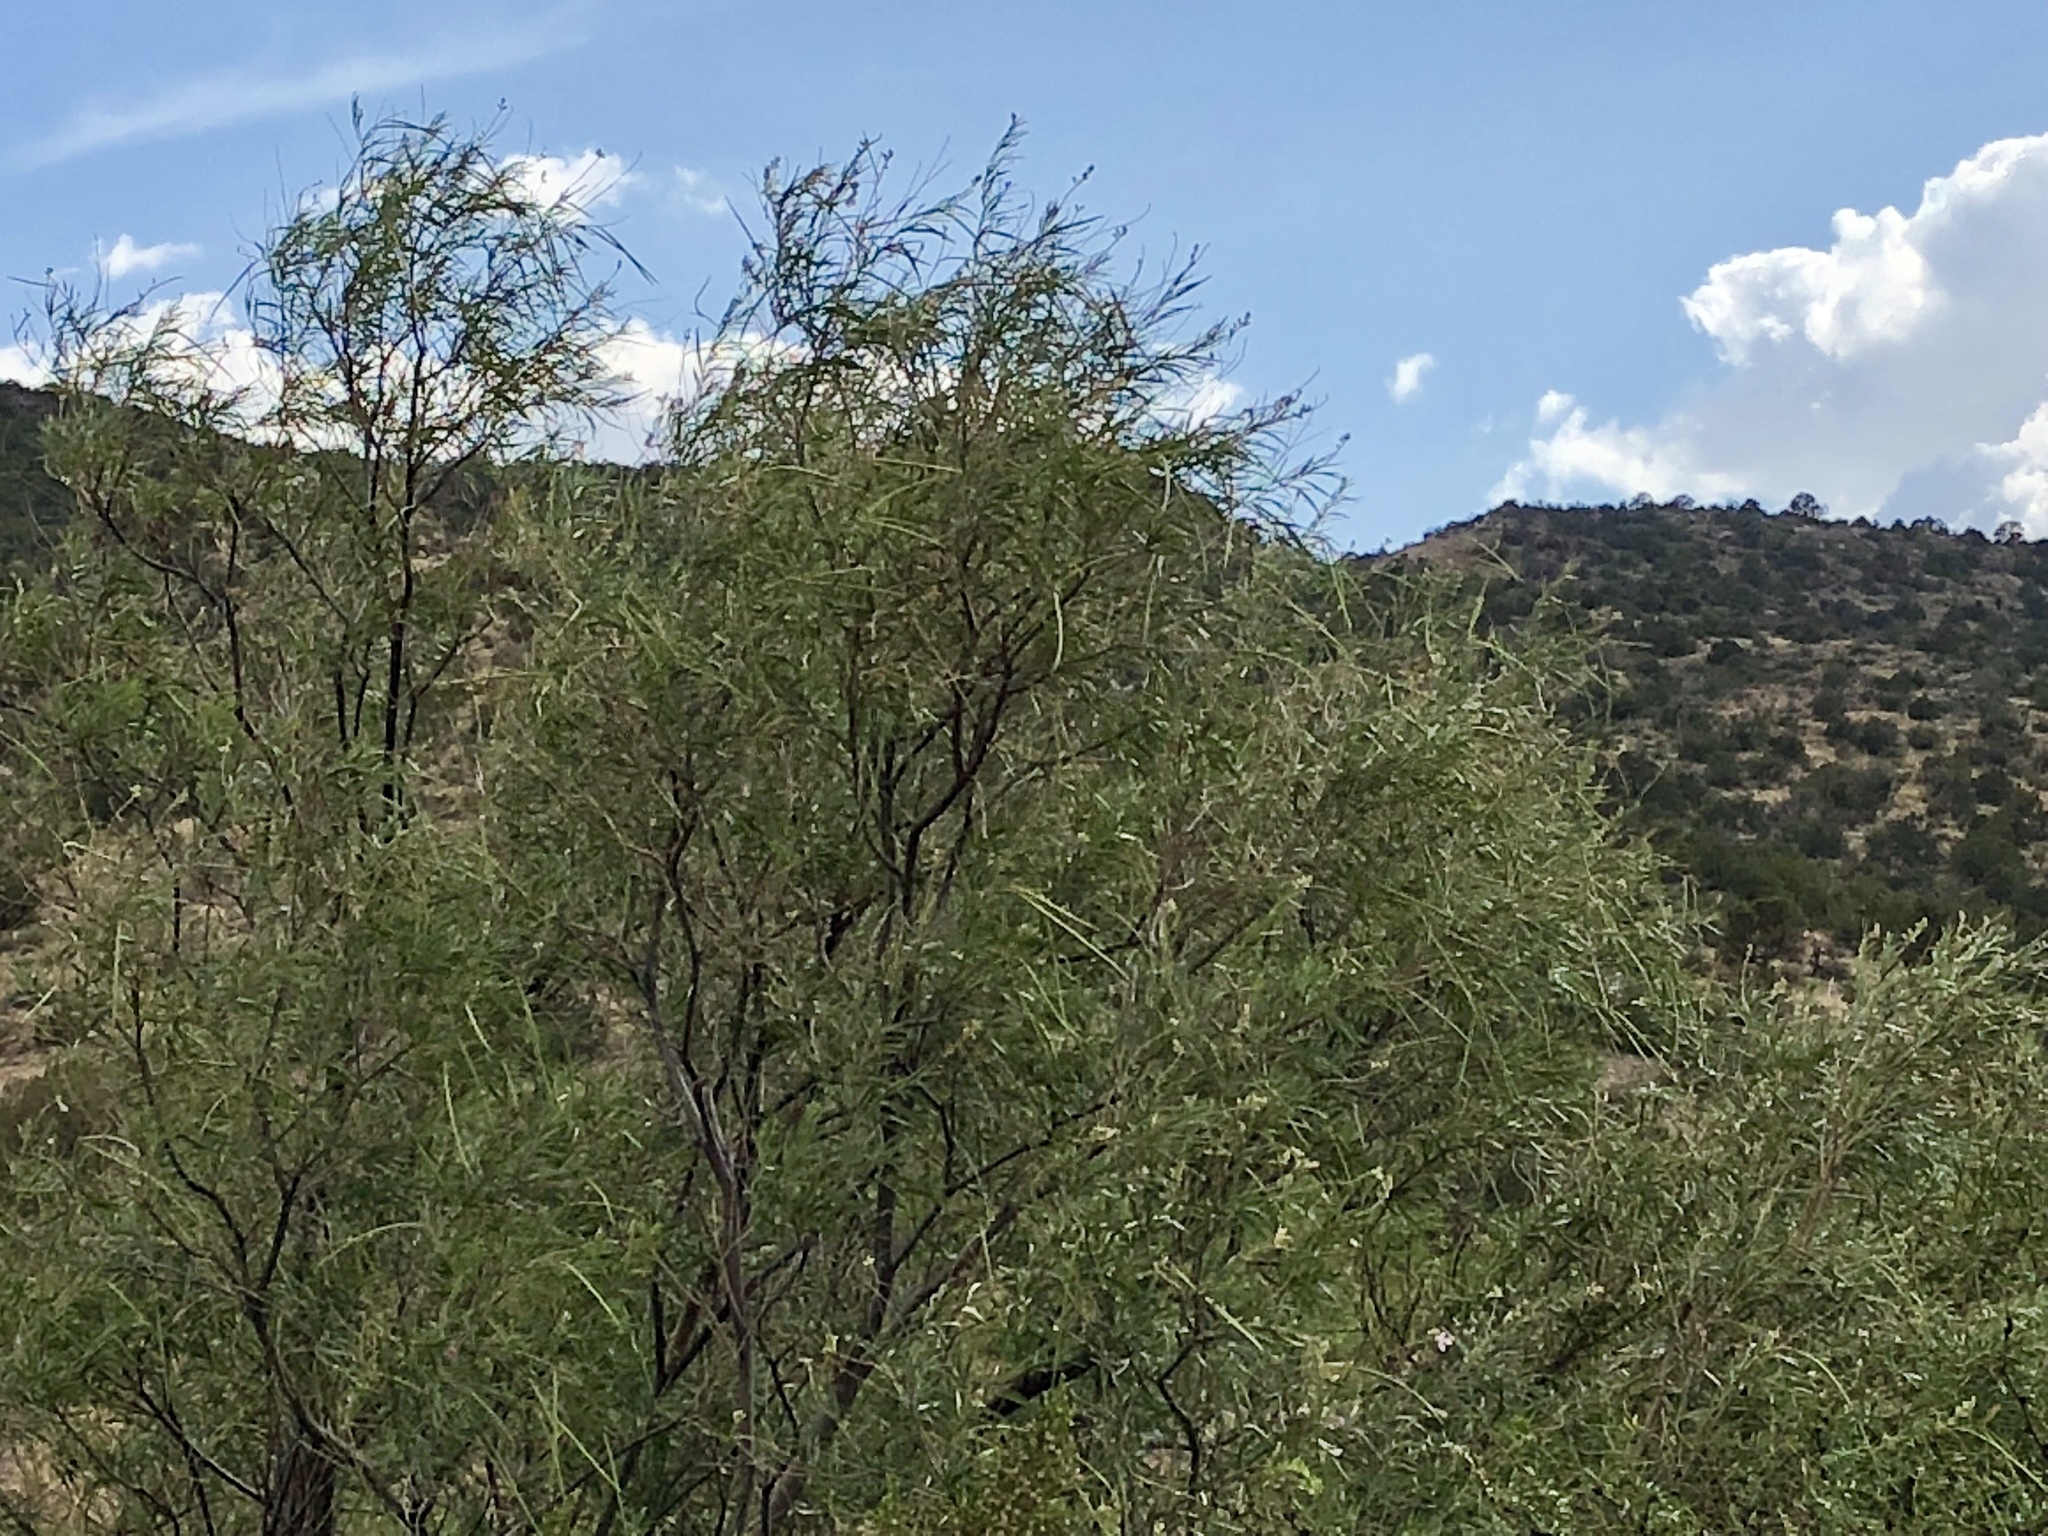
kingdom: Plantae
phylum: Tracheophyta
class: Magnoliopsida
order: Lamiales
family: Bignoniaceae
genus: Chilopsis
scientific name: Chilopsis linearis
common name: Desert-willow
